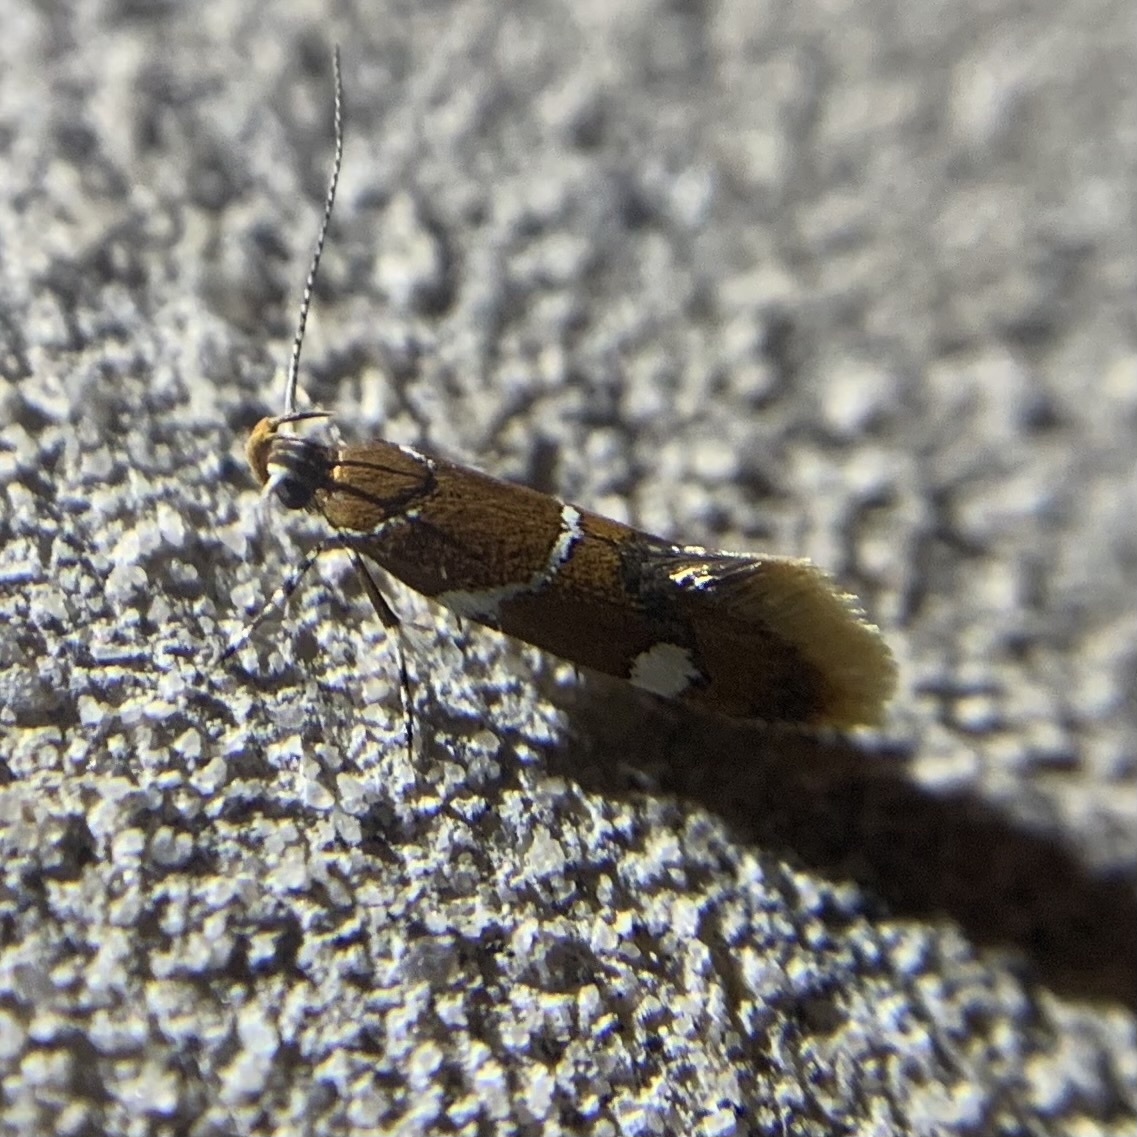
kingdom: Animalia
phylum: Arthropoda
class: Insecta
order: Lepidoptera
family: Oecophoridae
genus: Promalactis
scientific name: Promalactis suzukiella
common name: Moth
